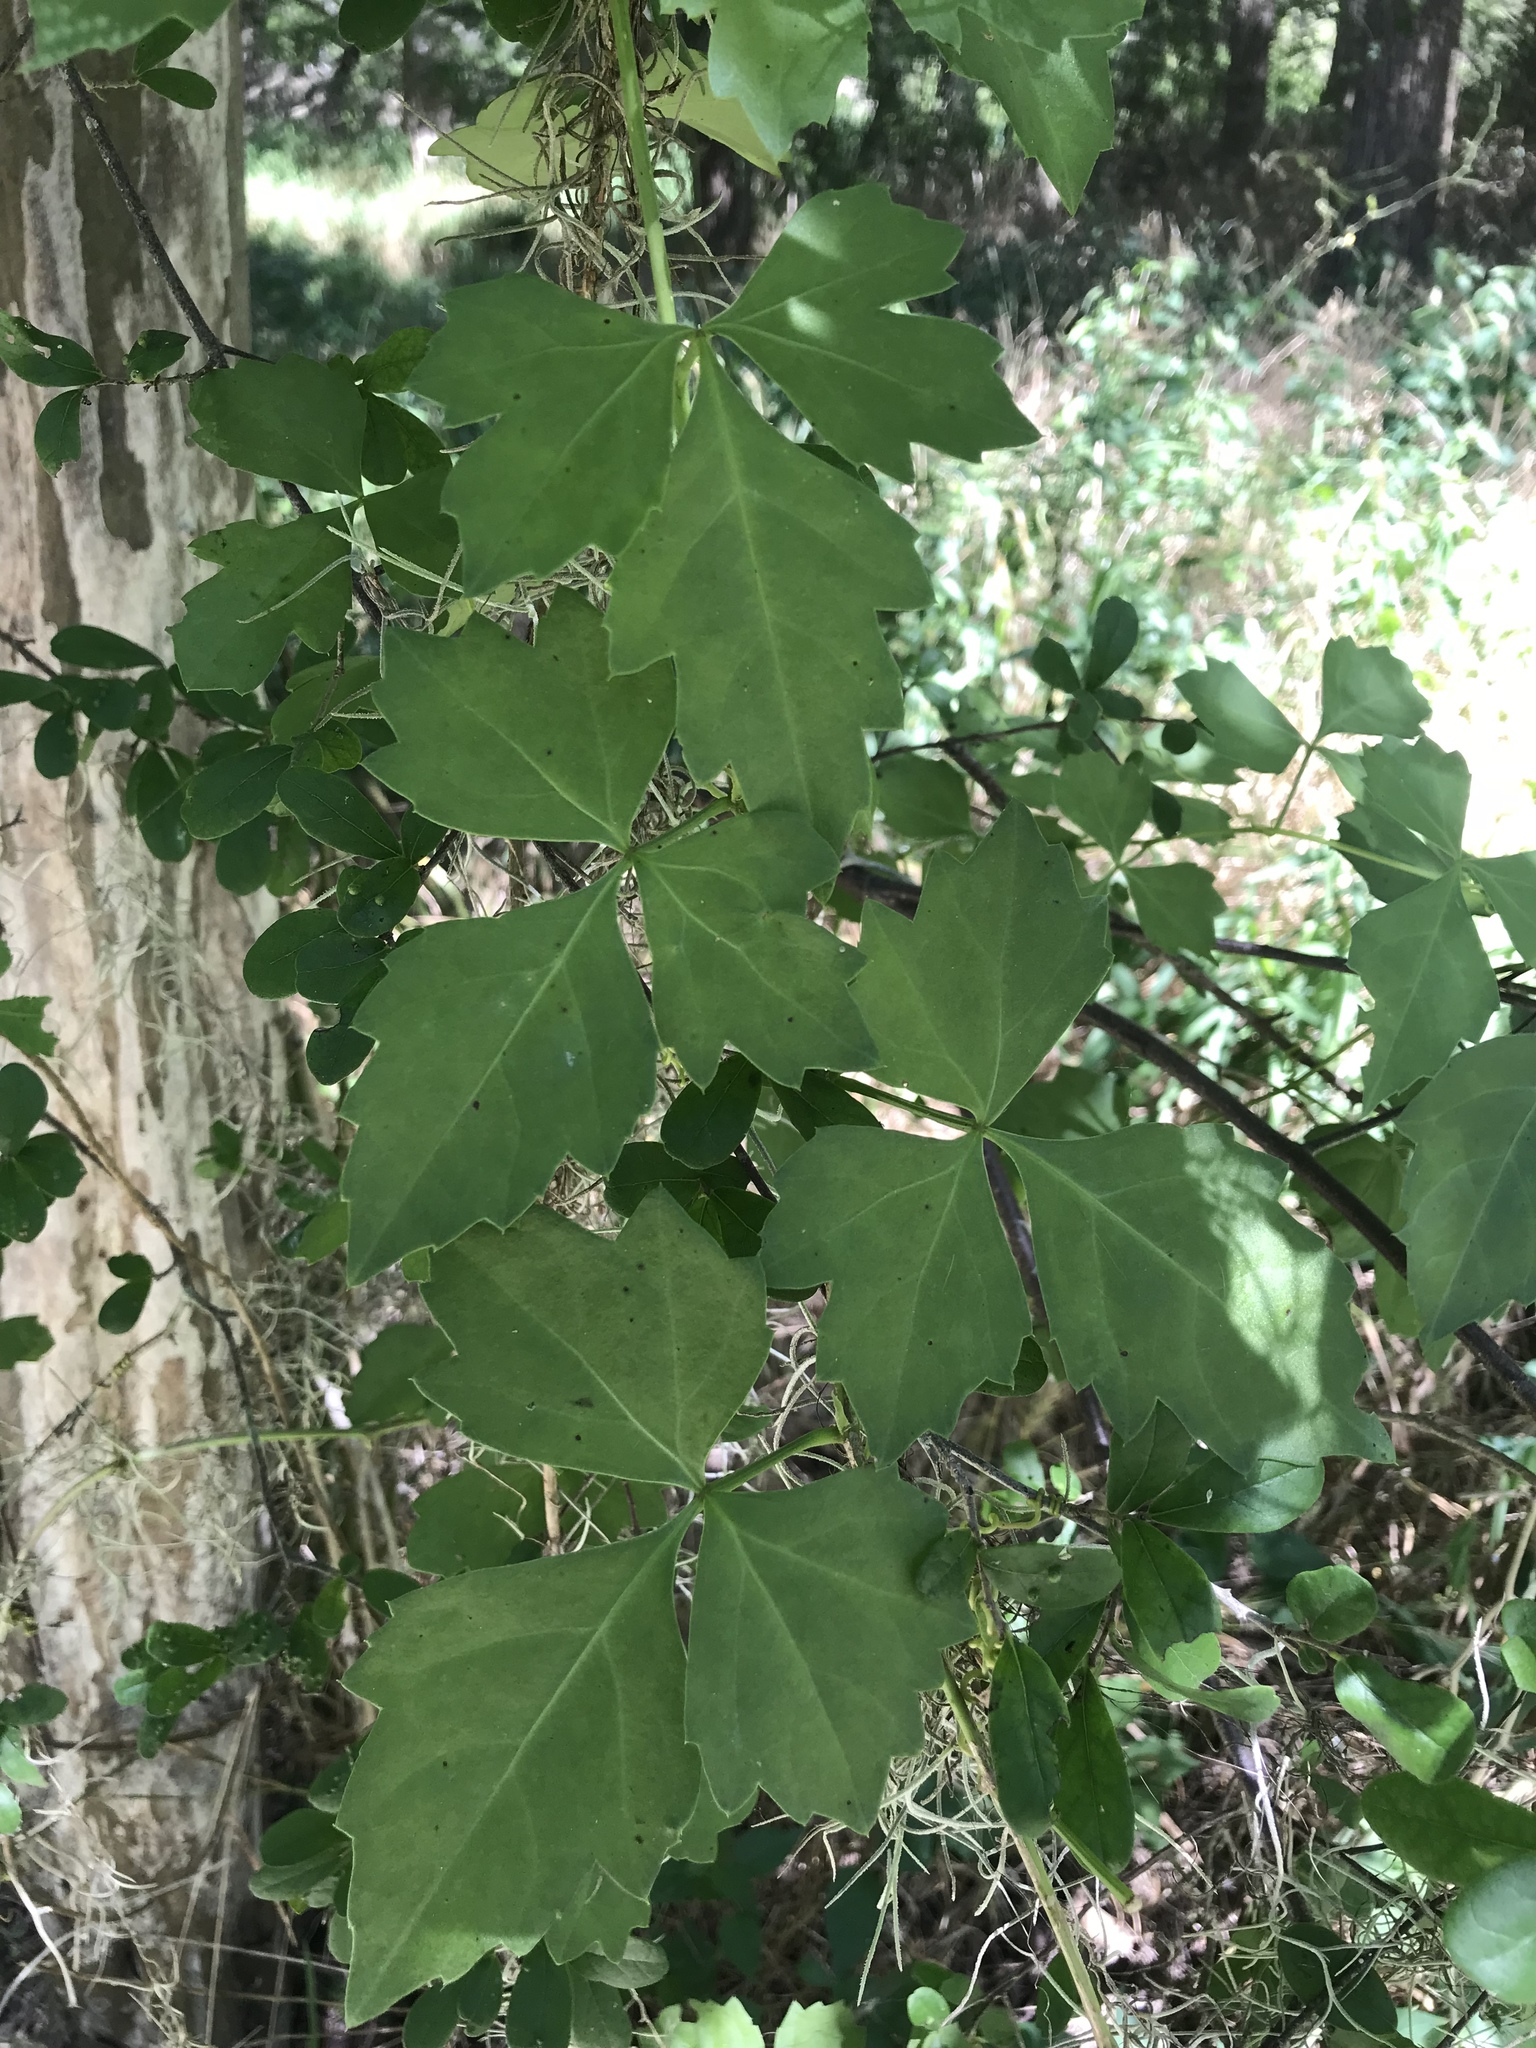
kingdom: Plantae
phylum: Tracheophyta
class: Magnoliopsida
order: Vitales
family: Vitaceae
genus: Cissus
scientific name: Cissus trifoliata
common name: Vine-sorrel
